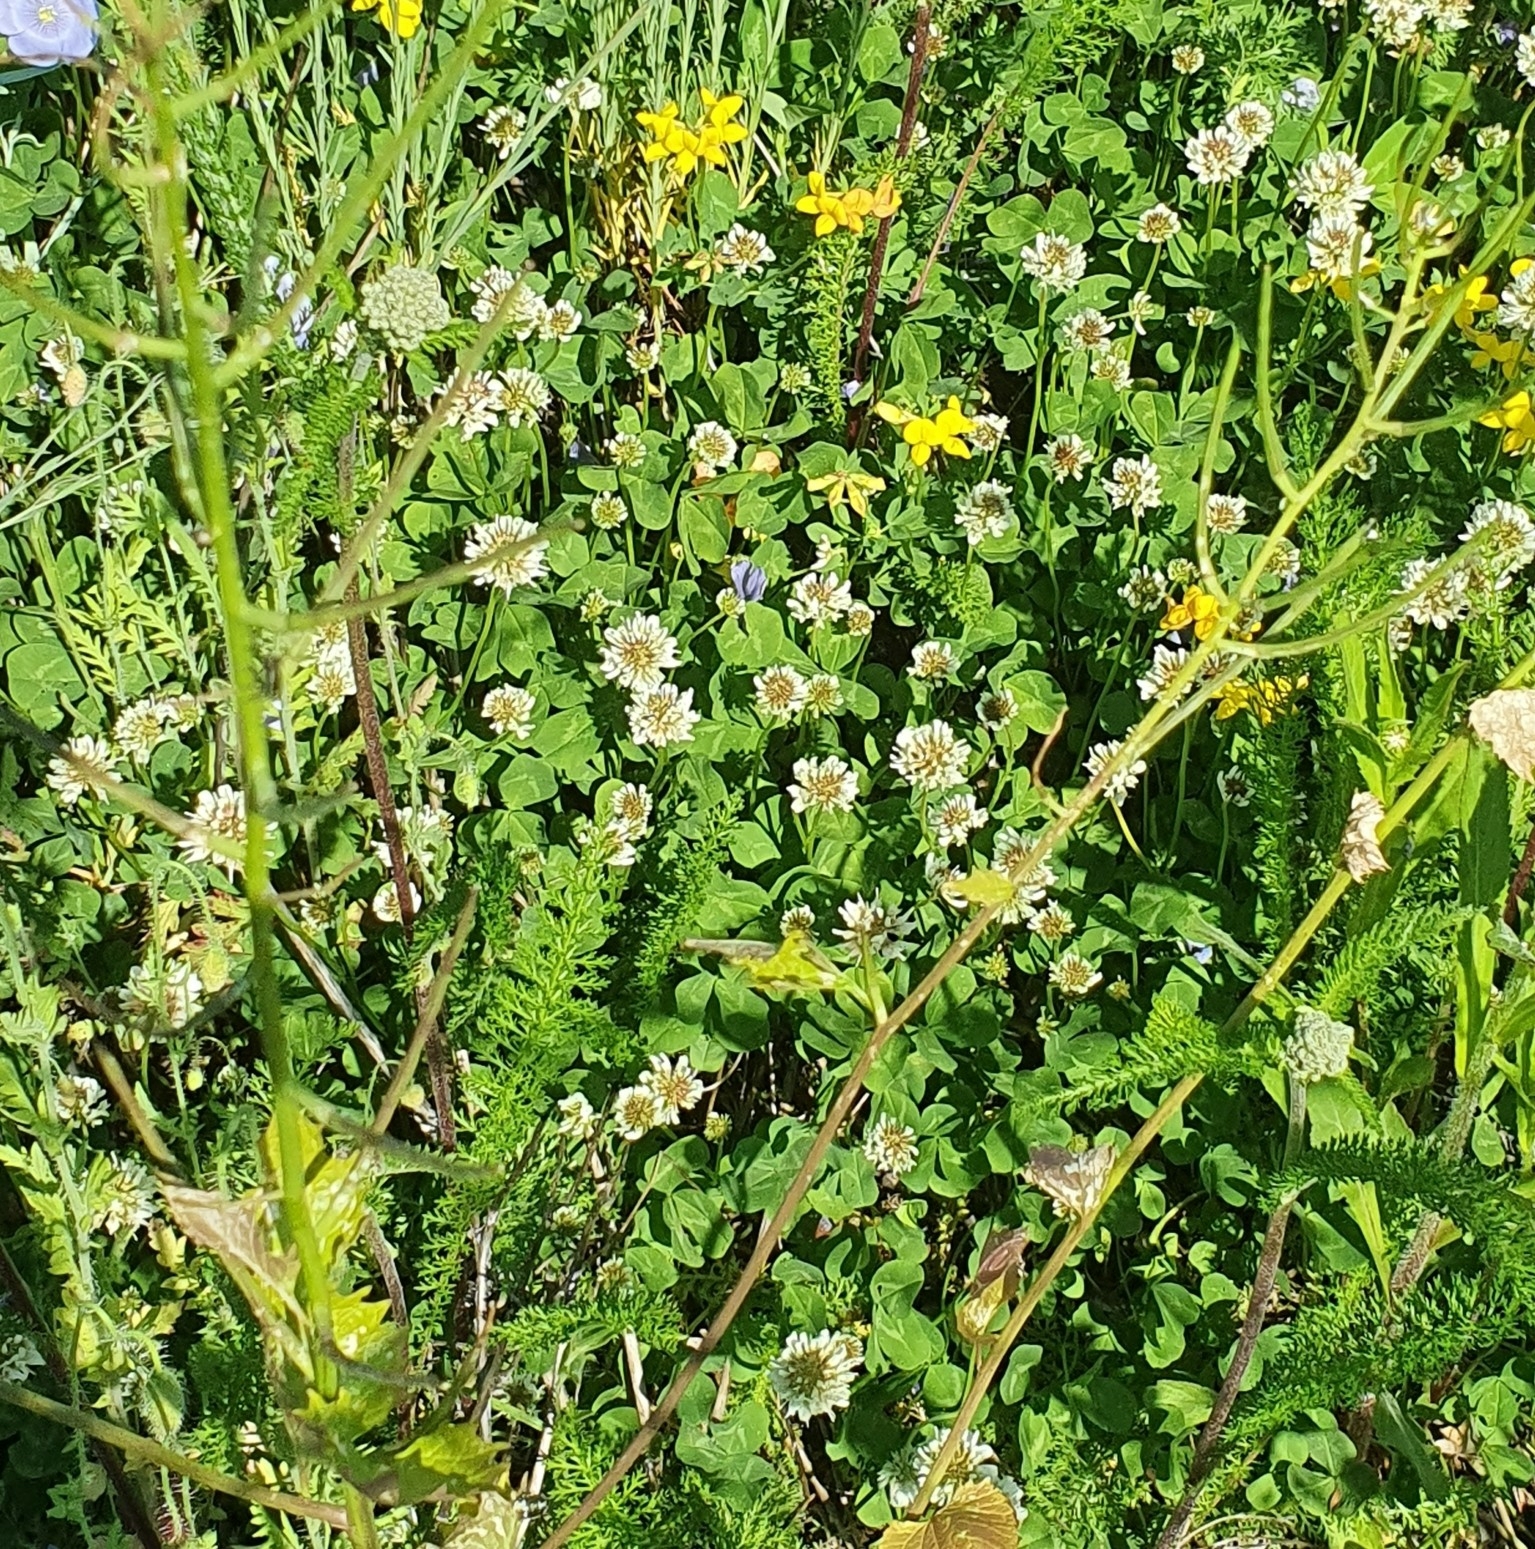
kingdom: Plantae
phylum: Tracheophyta
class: Magnoliopsida
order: Fabales
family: Fabaceae
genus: Trifolium
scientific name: Trifolium repens
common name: White clover
